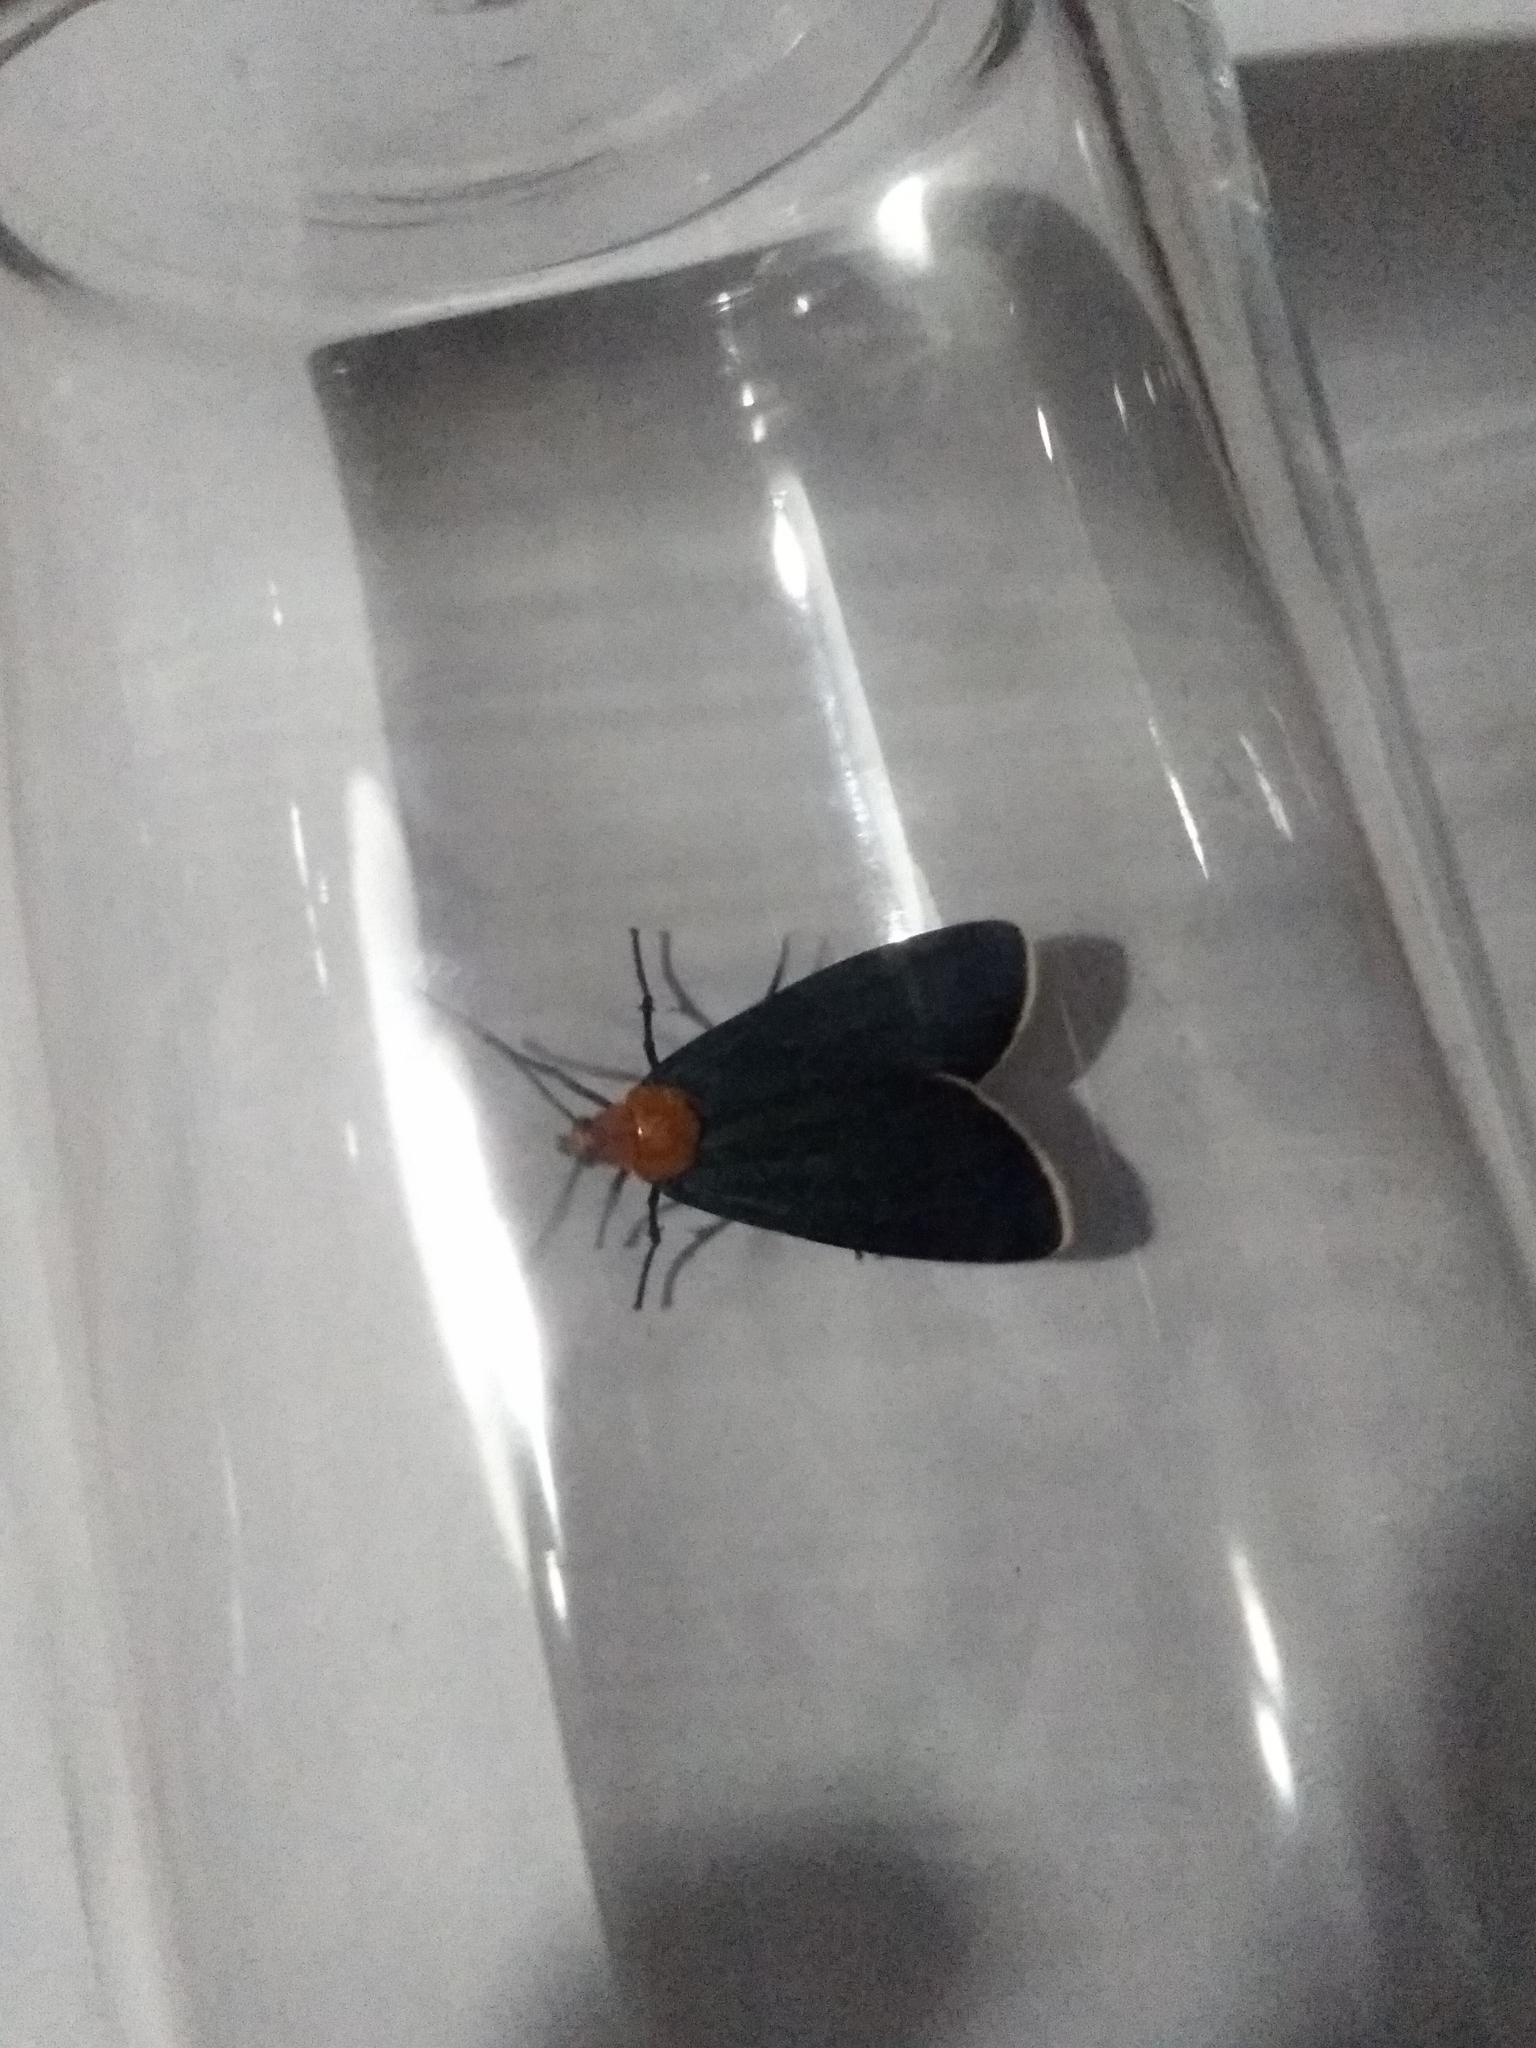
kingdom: Animalia
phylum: Arthropoda
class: Insecta
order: Lepidoptera
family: Erebidae
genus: Apistosia
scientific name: Apistosia judas
